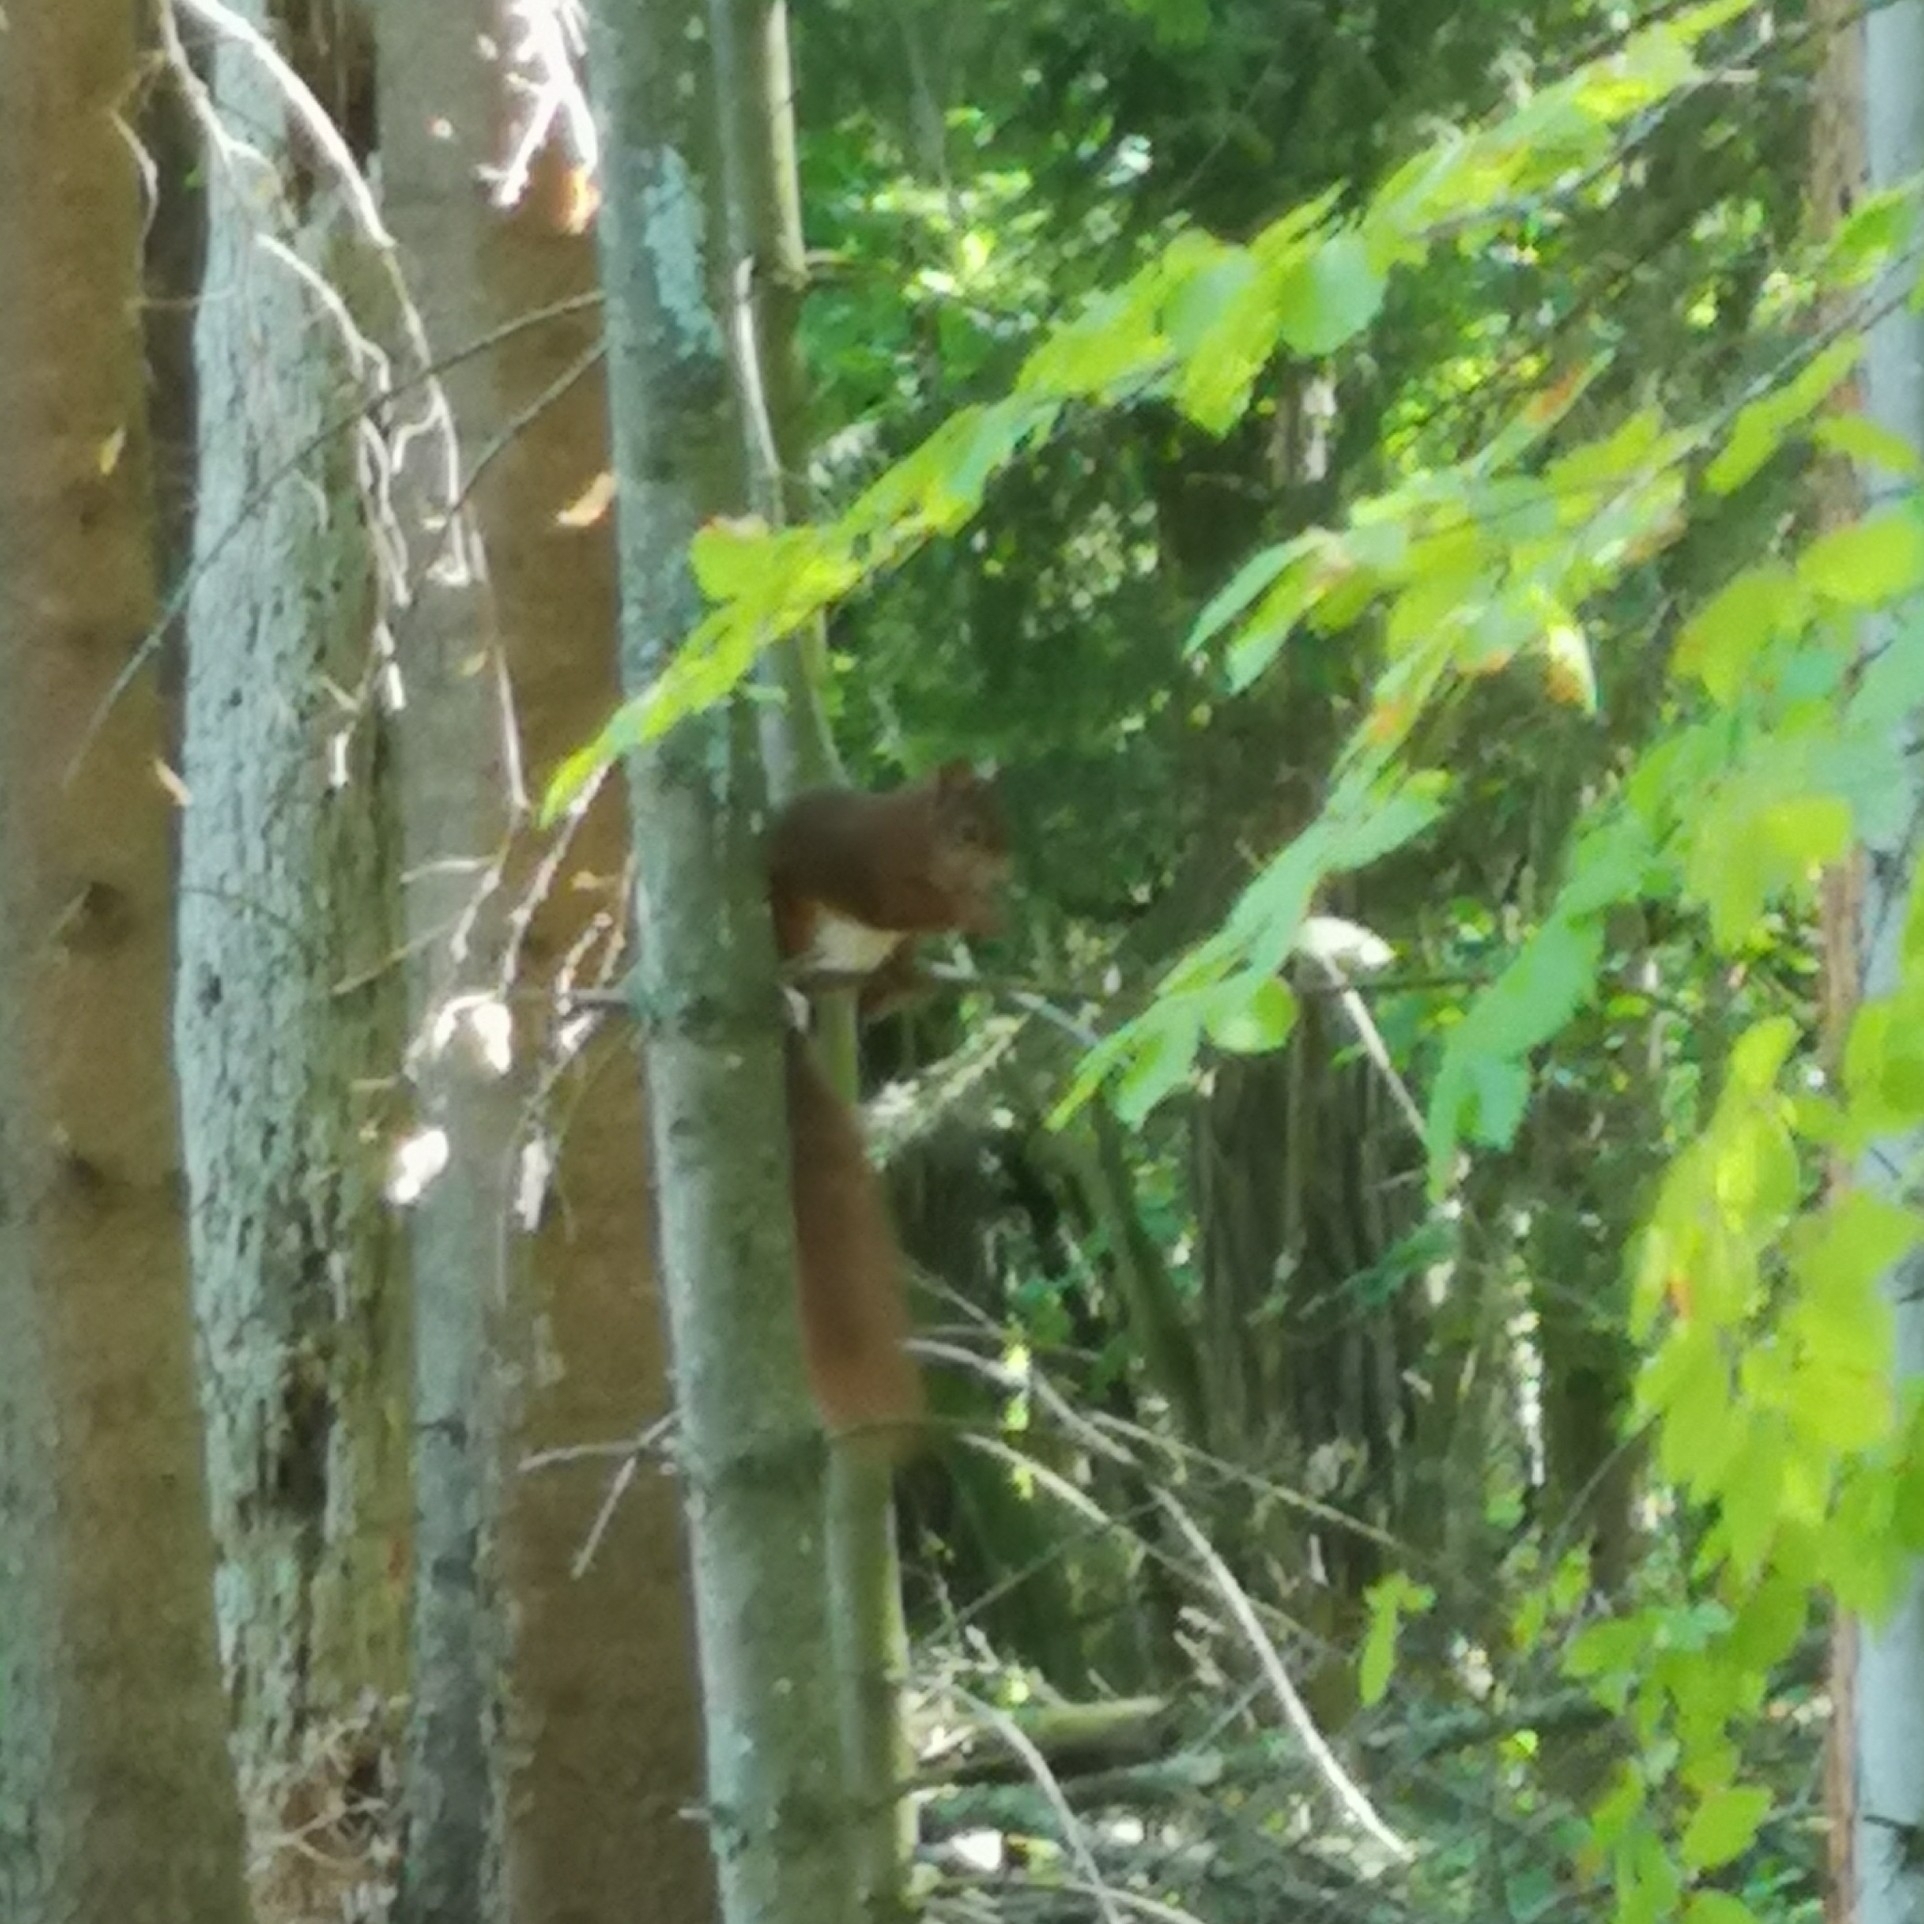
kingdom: Animalia
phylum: Chordata
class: Mammalia
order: Rodentia
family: Sciuridae
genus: Sciurus
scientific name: Sciurus vulgaris
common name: Eurasian red squirrel
